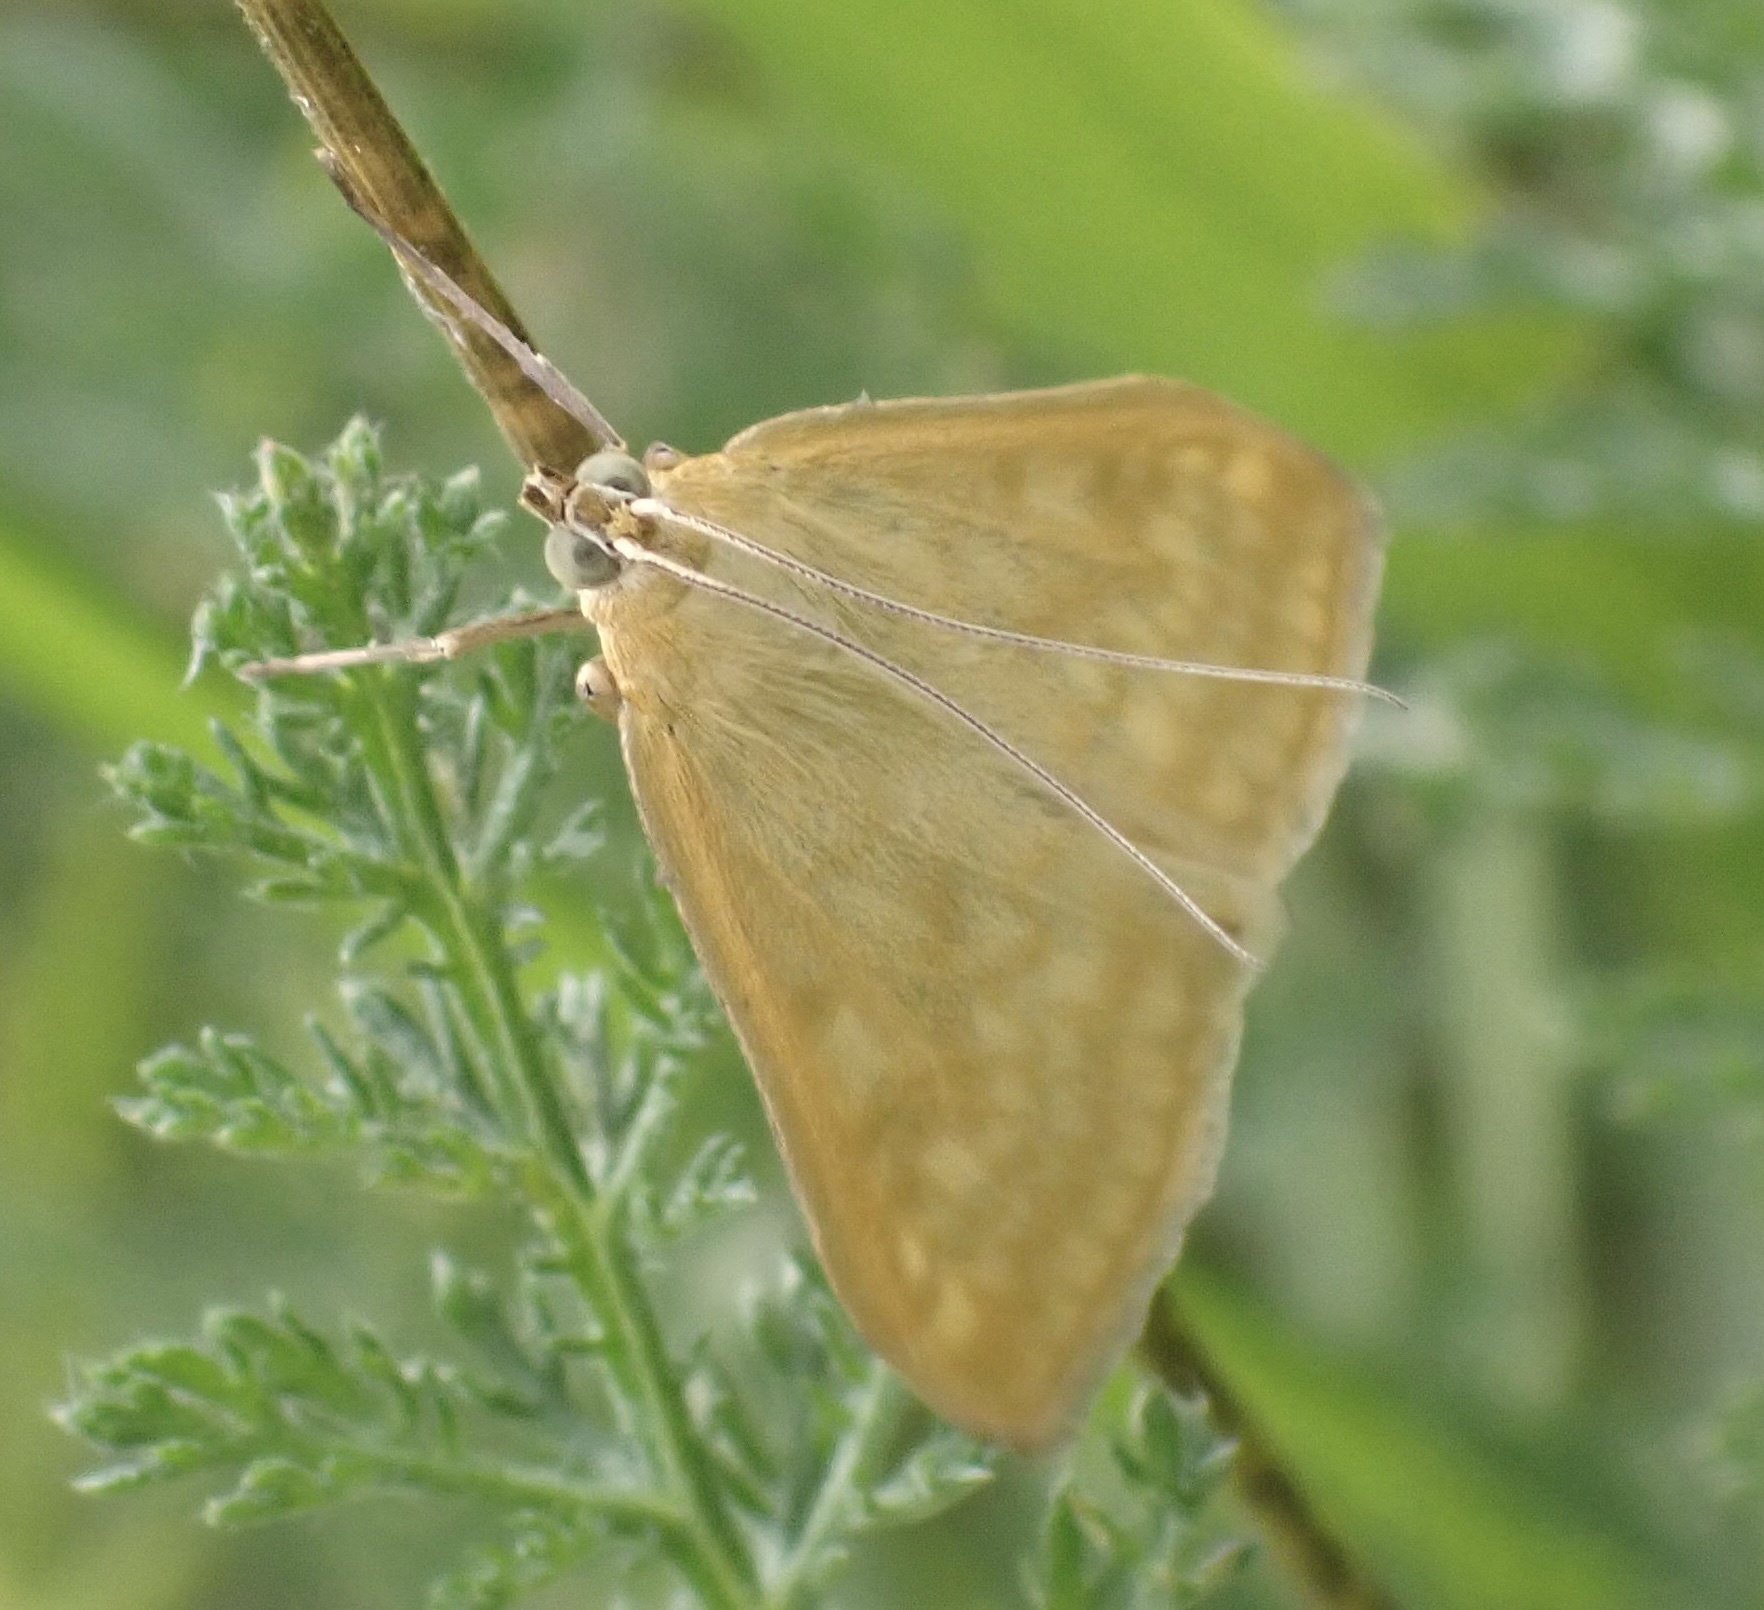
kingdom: Animalia
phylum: Arthropoda
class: Insecta
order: Lepidoptera
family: Crambidae
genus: Sitochroa
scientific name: Sitochroa verticalis
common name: Lesser pearl
